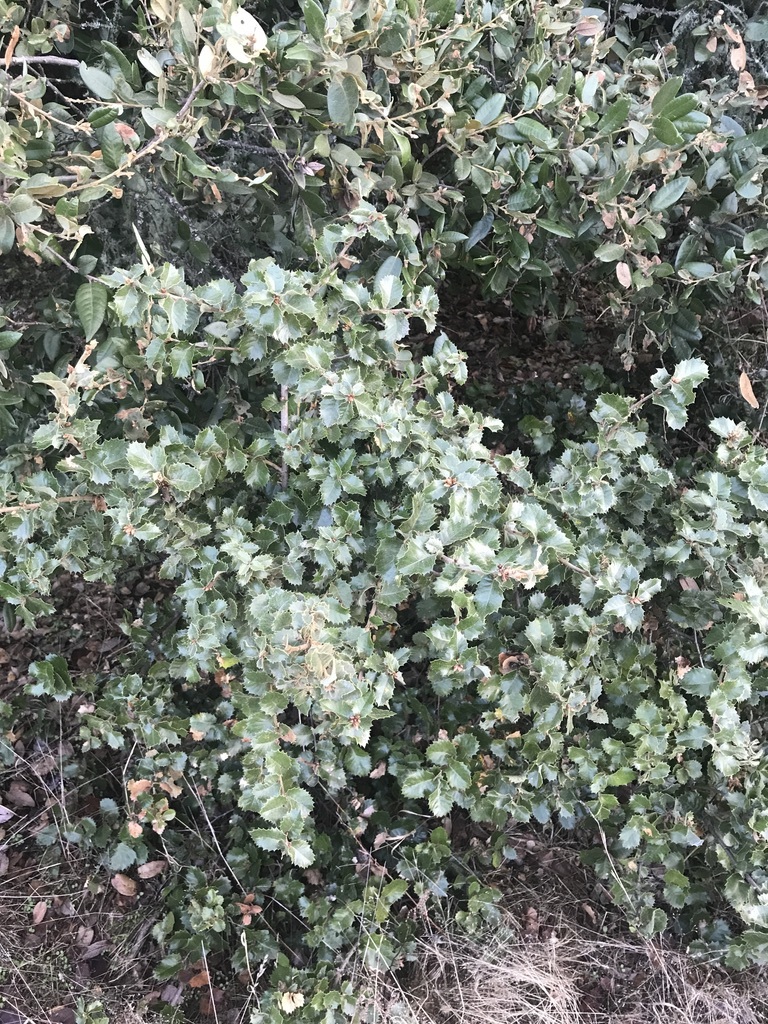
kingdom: Plantae
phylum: Tracheophyta
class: Magnoliopsida
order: Rosales
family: Rosaceae
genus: Prunus
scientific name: Prunus ilicifolia
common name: Hollyleaf cherry
